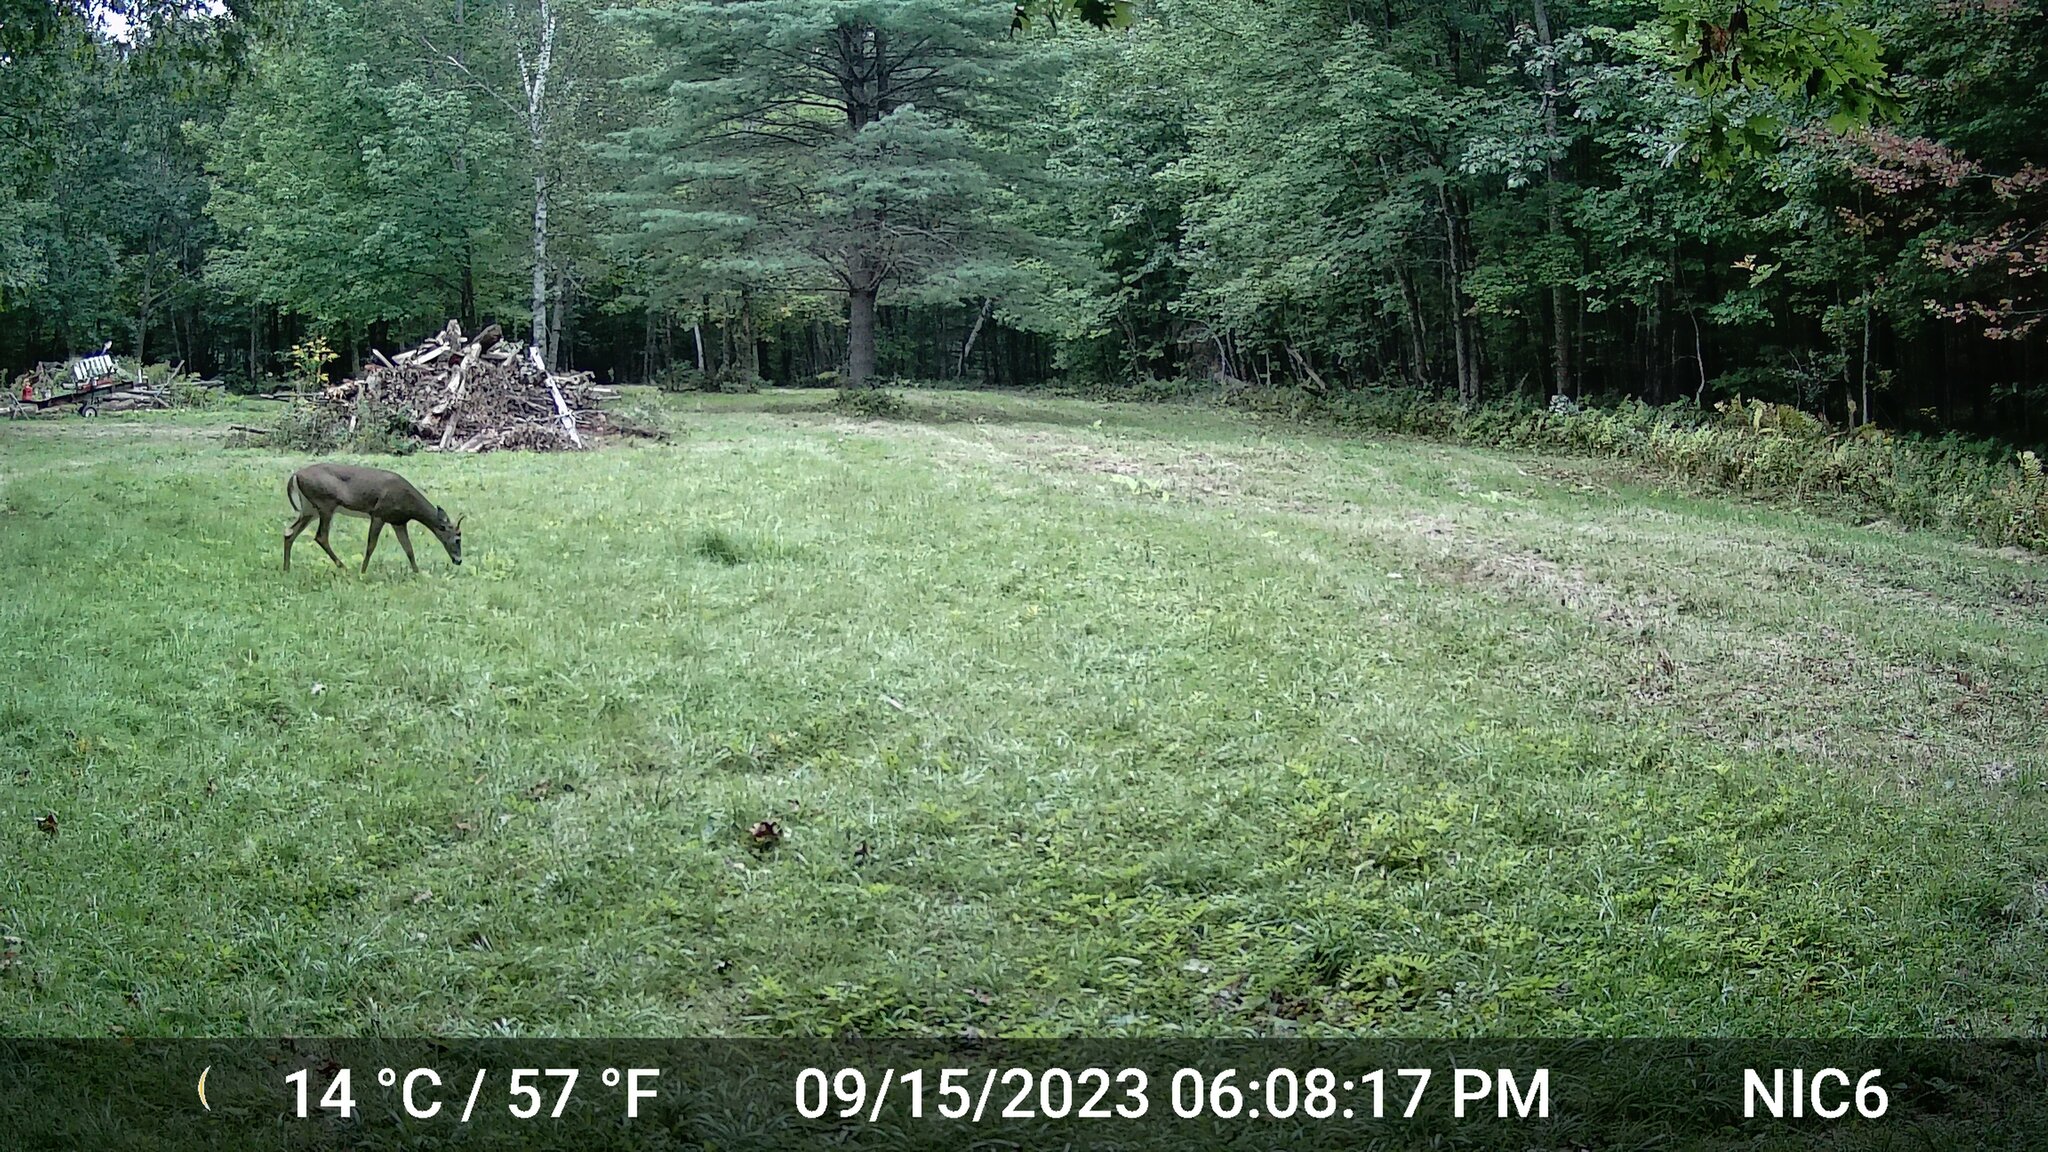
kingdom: Animalia
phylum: Chordata
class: Mammalia
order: Artiodactyla
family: Cervidae
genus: Odocoileus
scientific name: Odocoileus virginianus
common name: White-tailed deer
